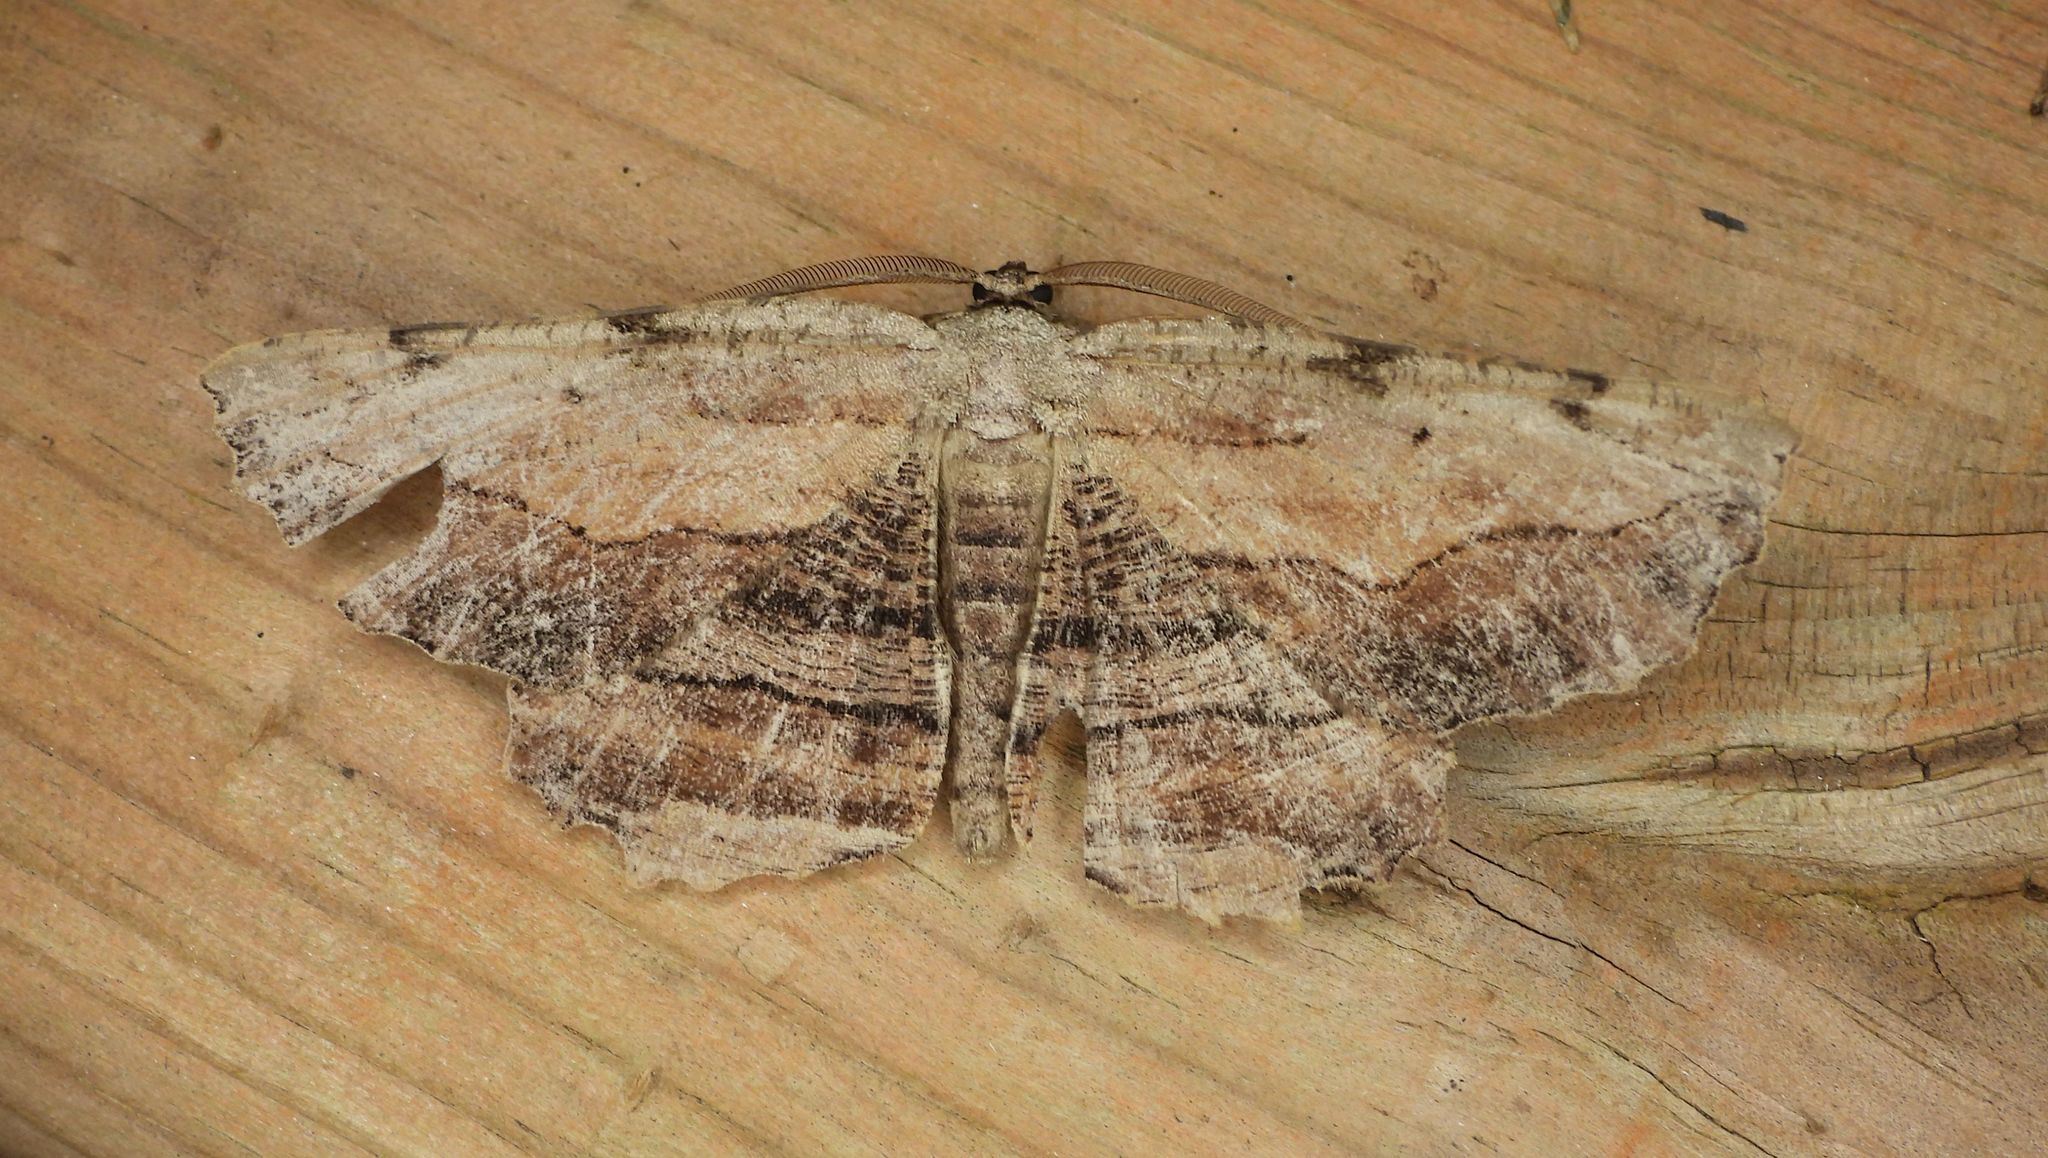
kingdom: Animalia
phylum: Arthropoda
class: Insecta
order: Lepidoptera
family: Geometridae
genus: Lytrosis
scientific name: Lytrosis unitaria
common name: Common lytrosis
